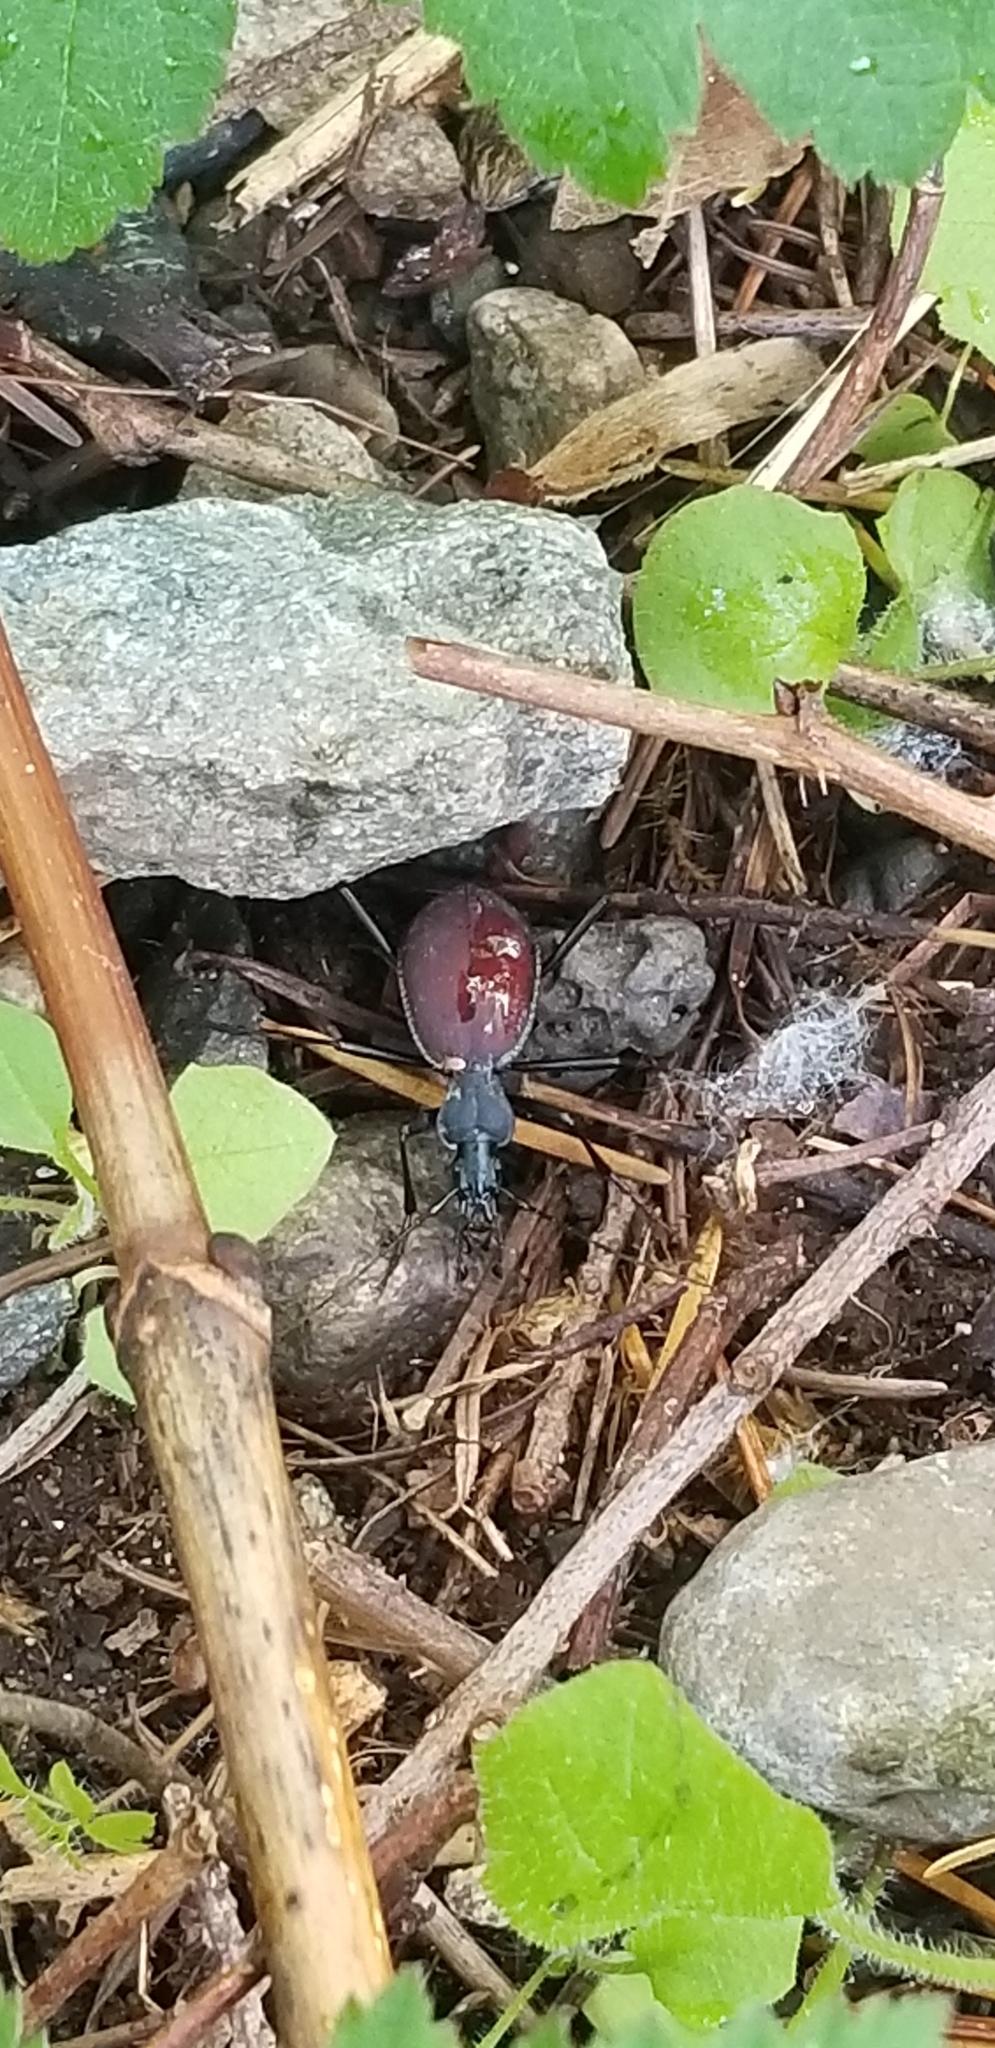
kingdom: Animalia
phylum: Arthropoda
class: Insecta
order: Coleoptera
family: Carabidae
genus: Scaphinotus
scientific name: Scaphinotus angusticollis
